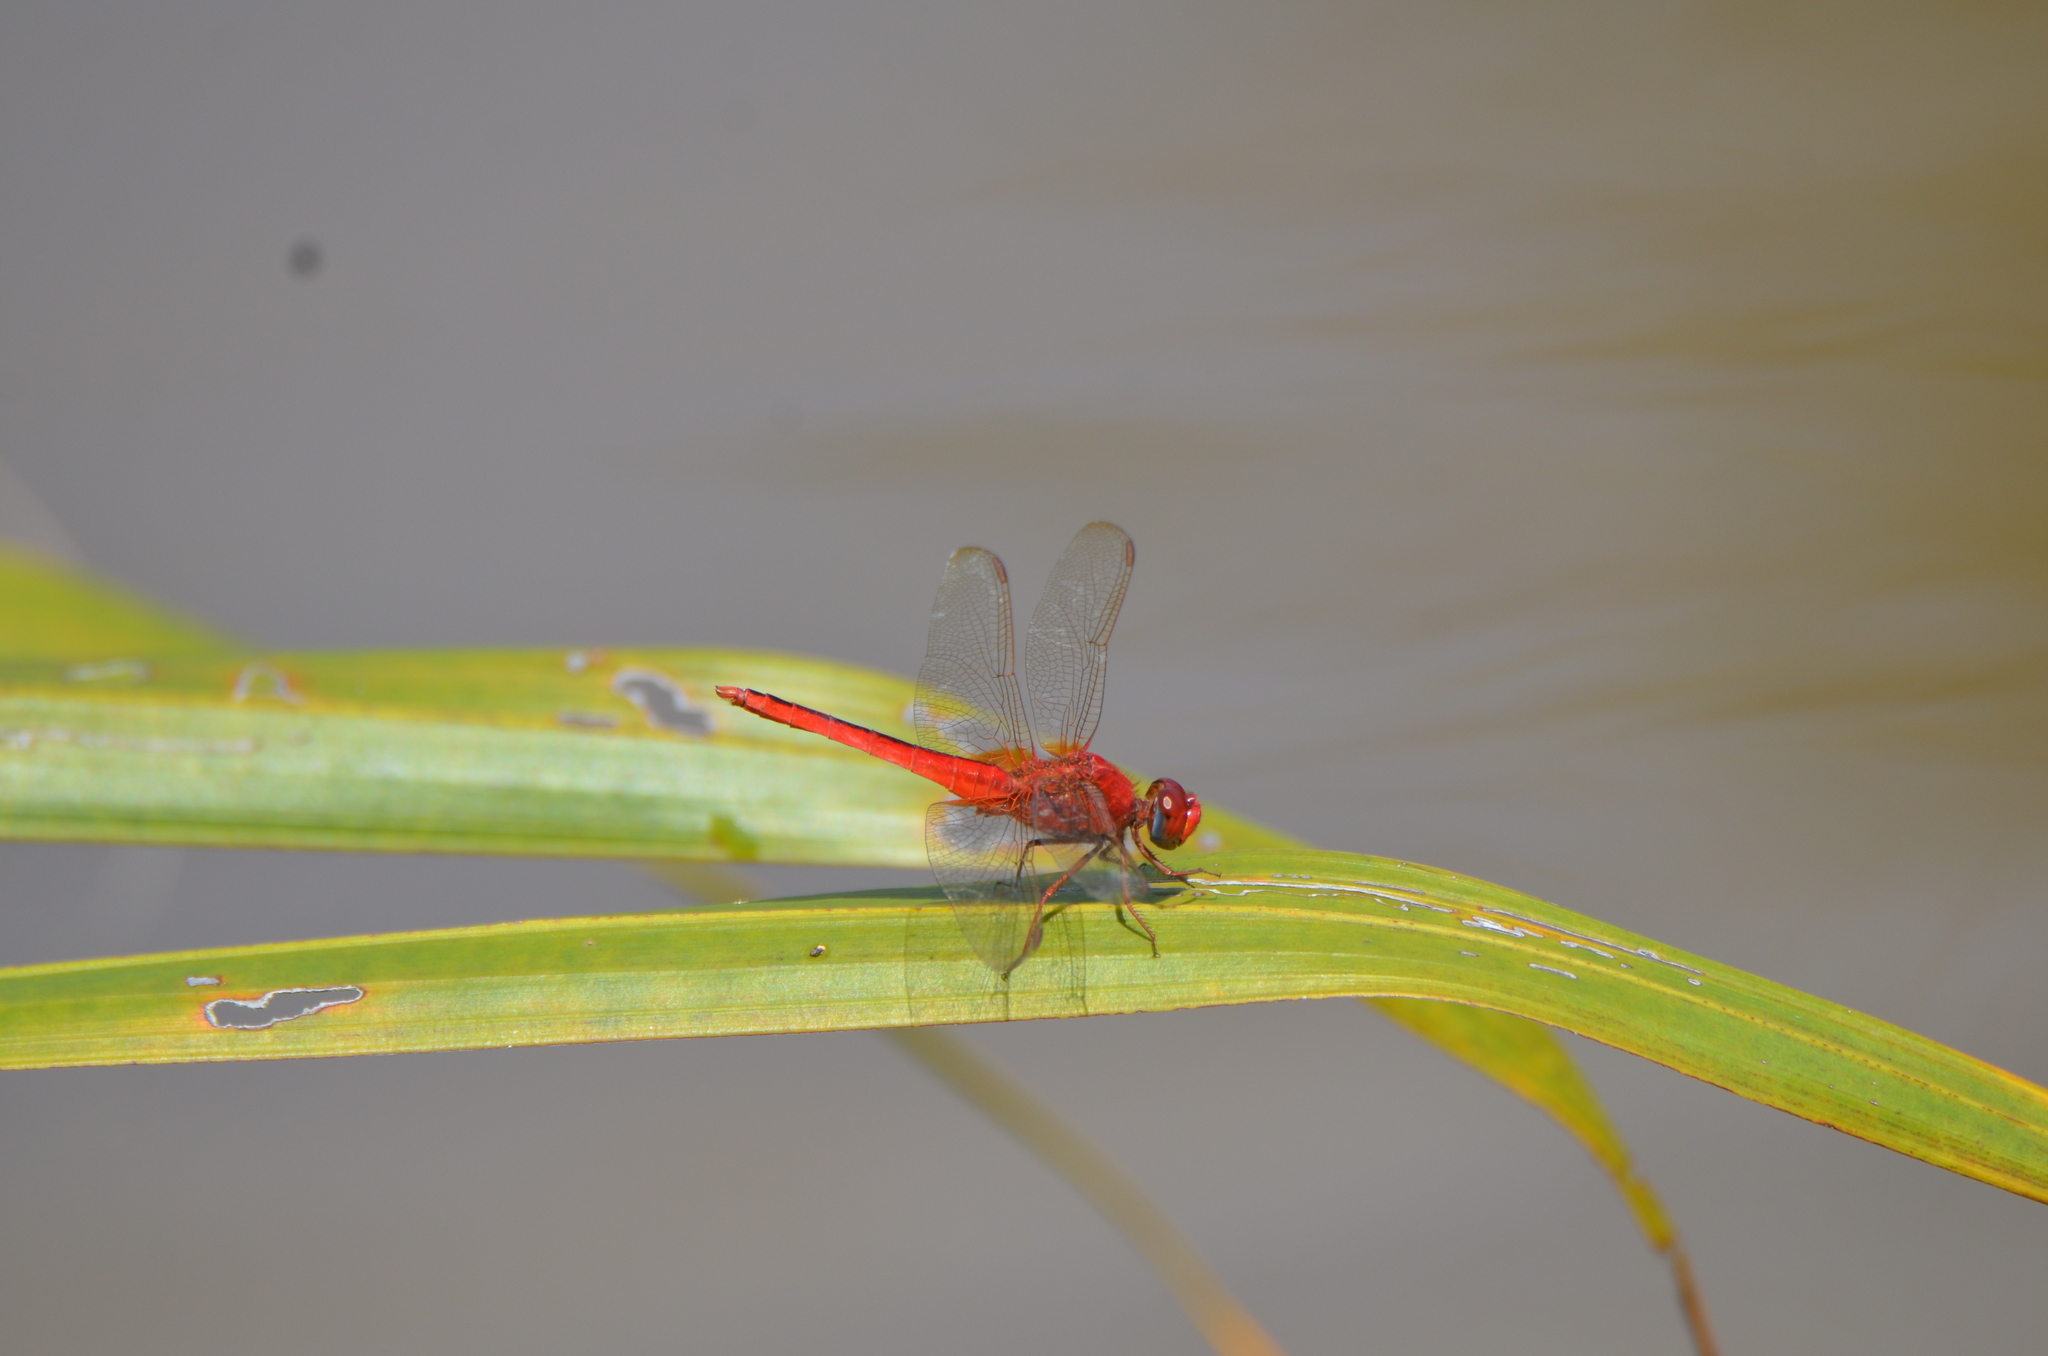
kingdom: Animalia
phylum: Arthropoda
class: Insecta
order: Odonata
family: Libellulidae
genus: Crocothemis
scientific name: Crocothemis servilia
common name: Scarlet skimmer
